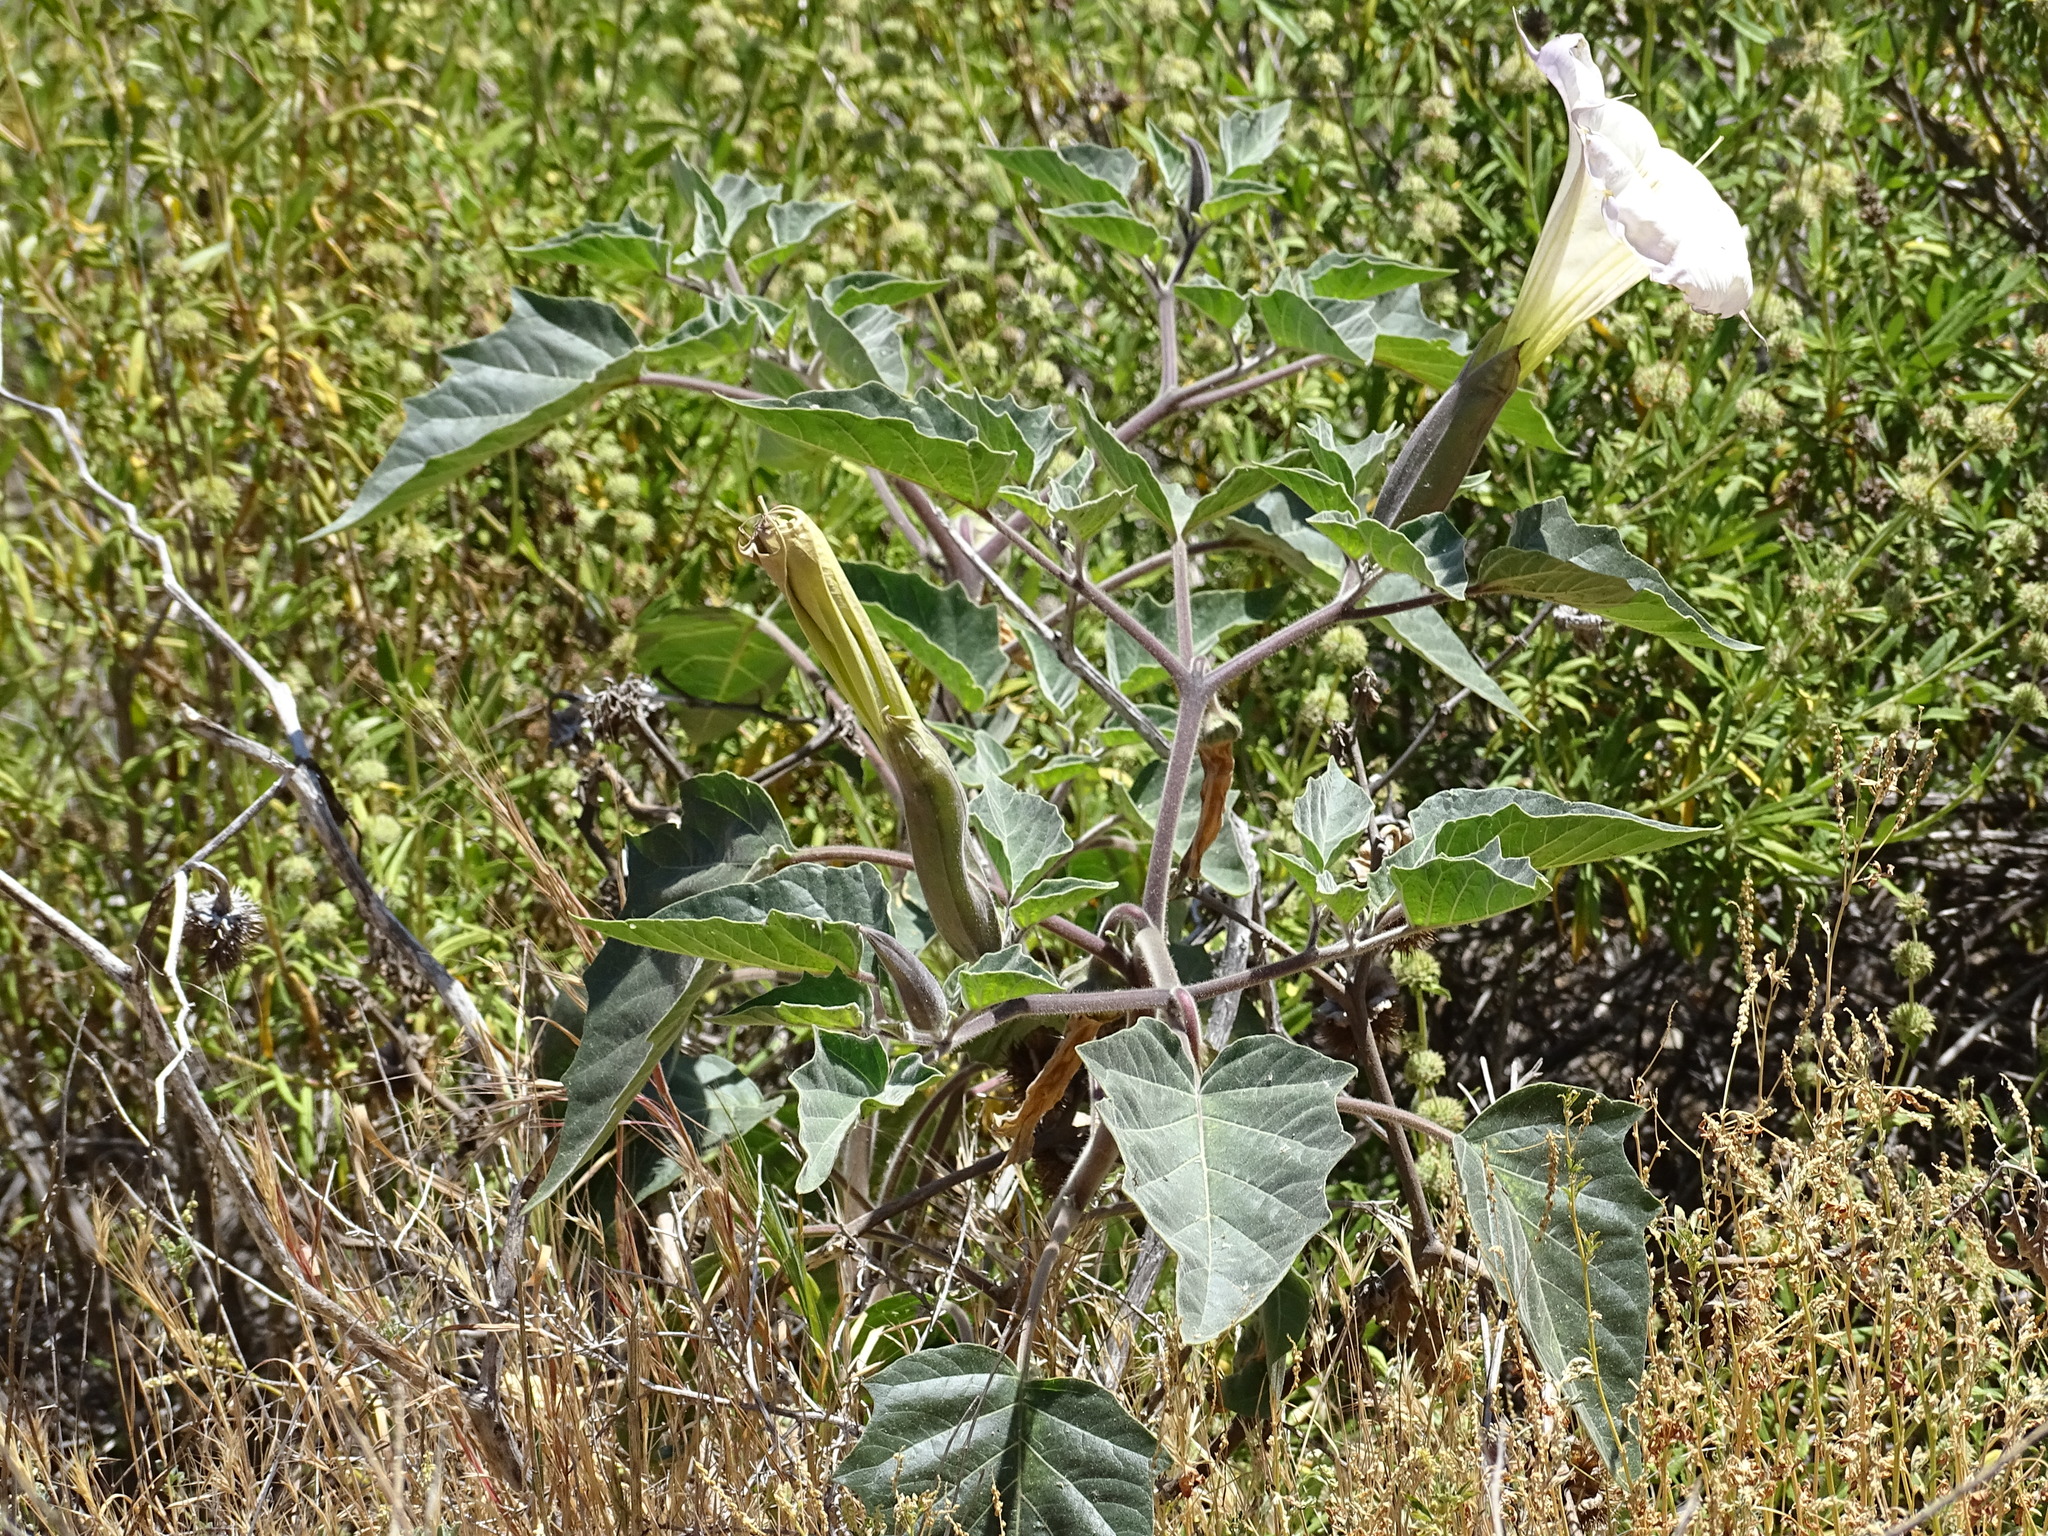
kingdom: Plantae
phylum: Tracheophyta
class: Magnoliopsida
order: Solanales
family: Solanaceae
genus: Datura
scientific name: Datura wrightii
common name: Sacred thorn-apple
